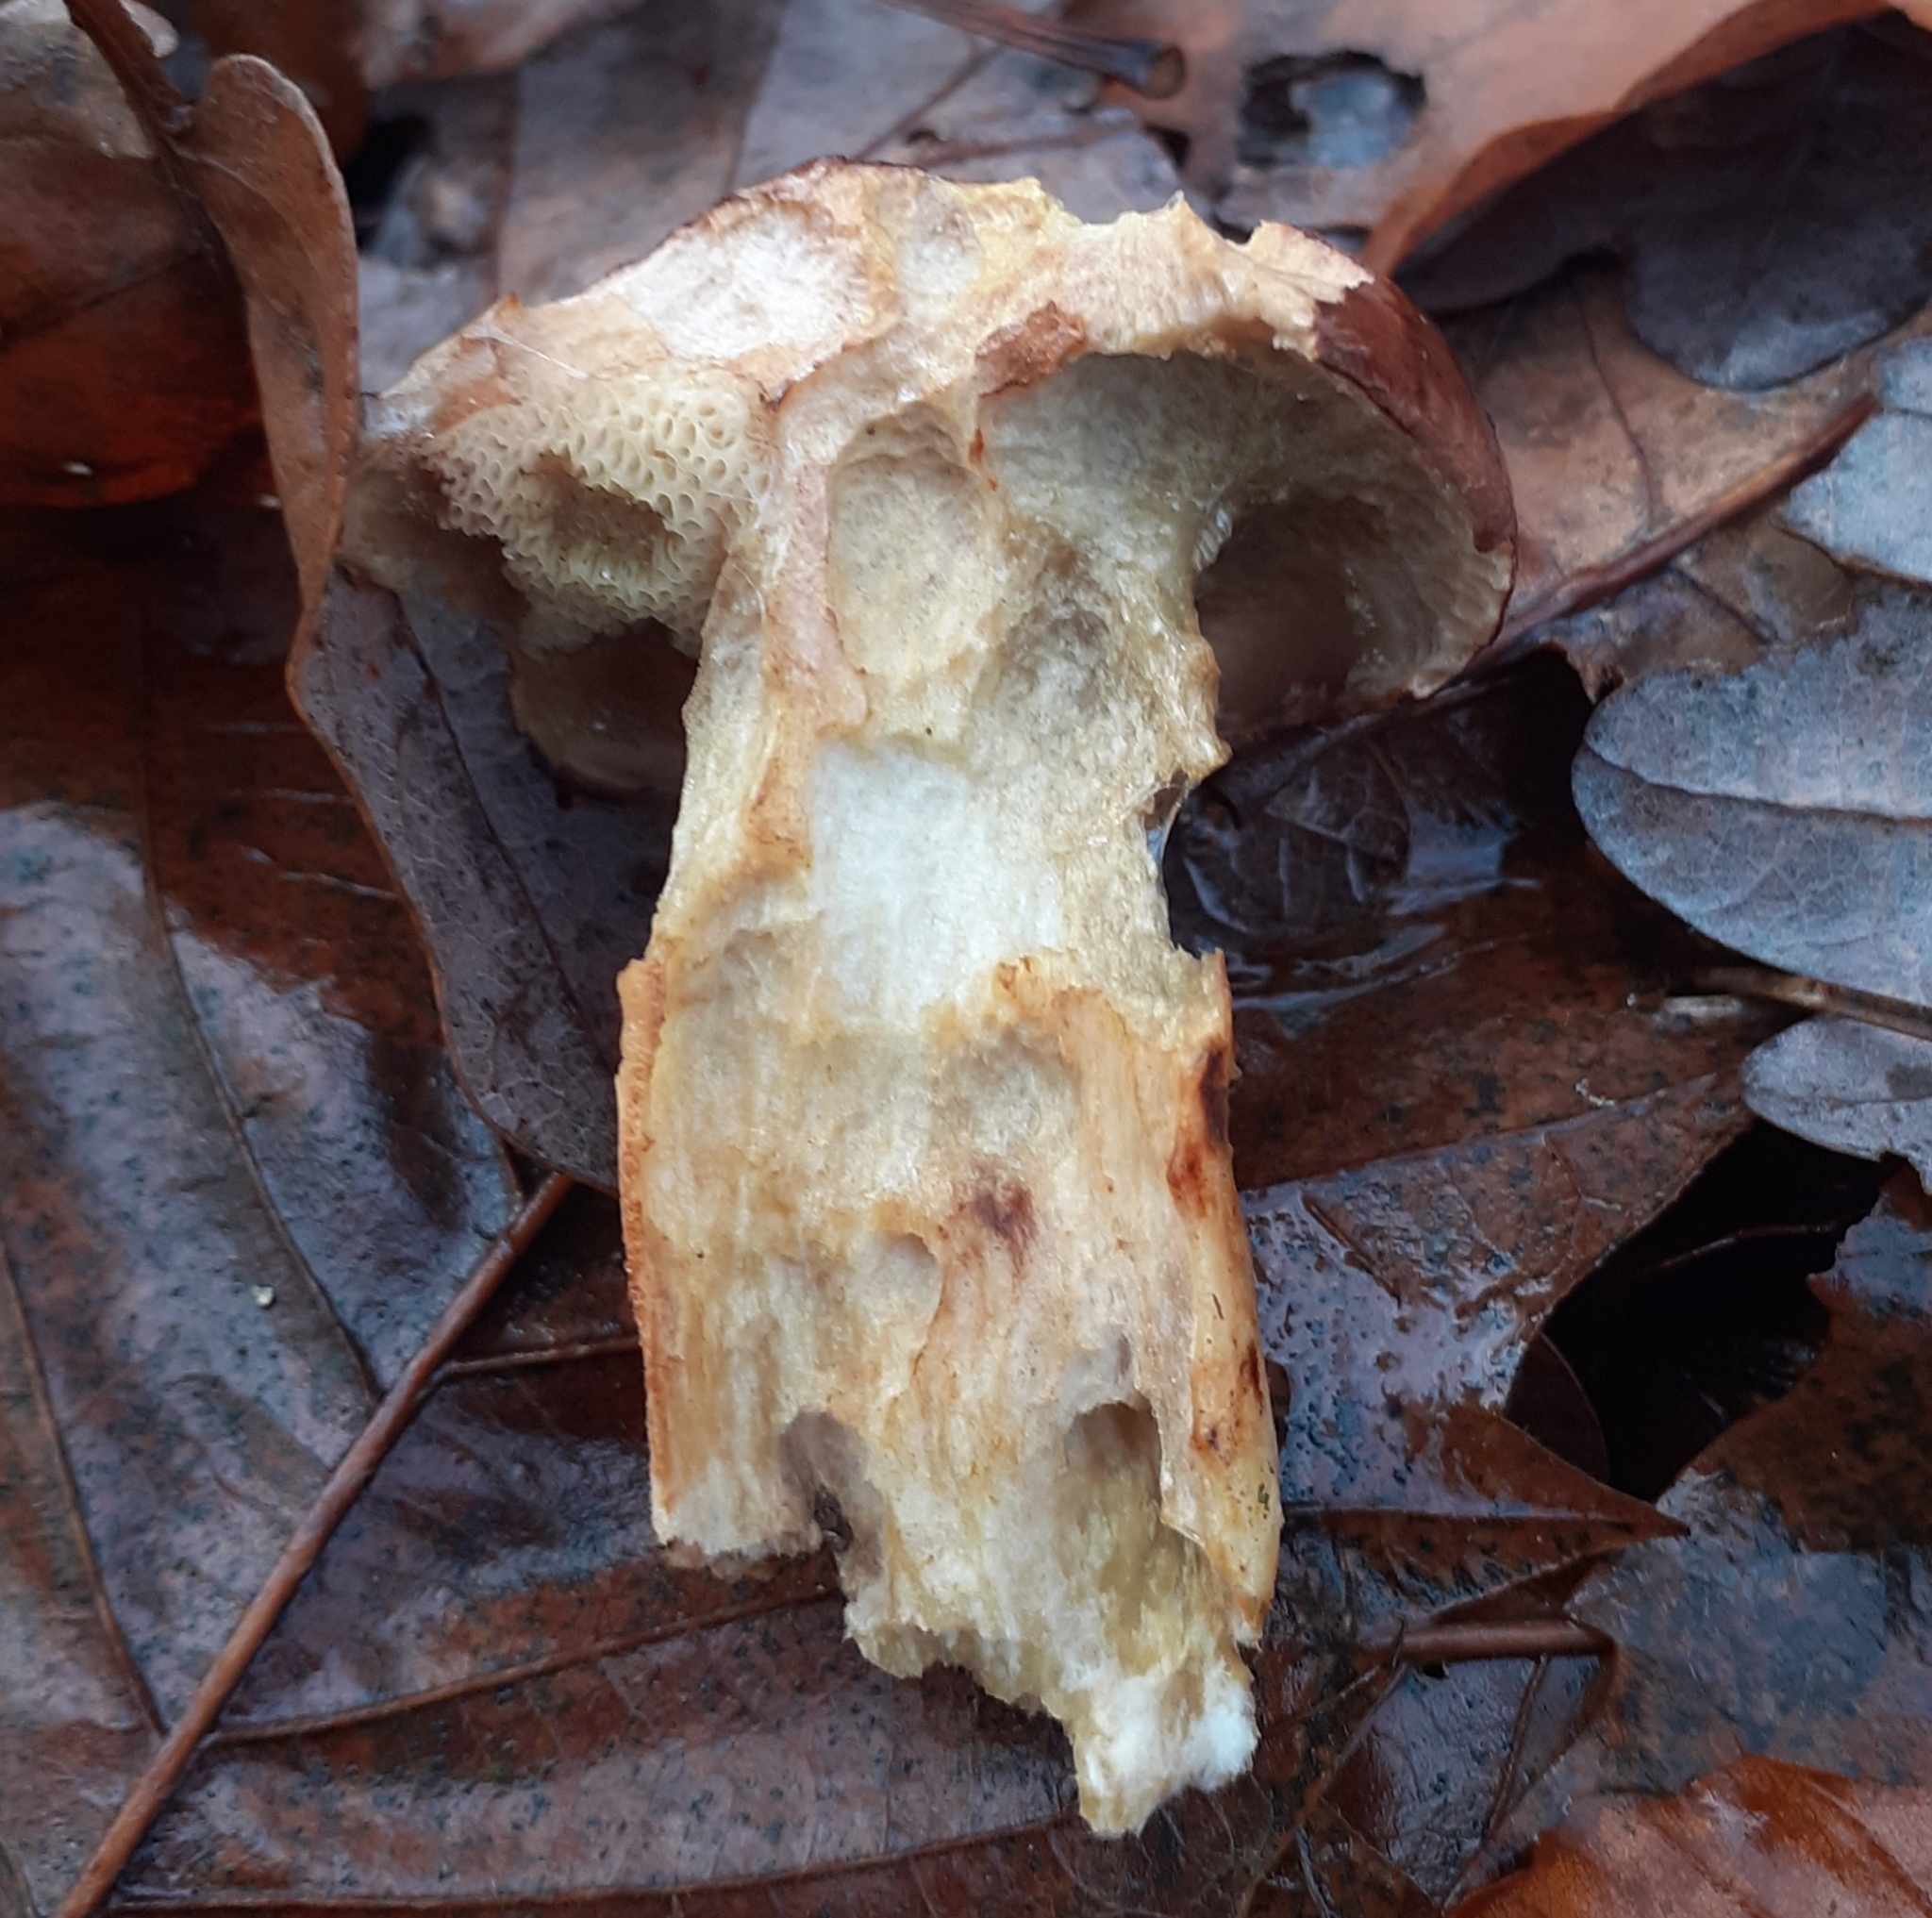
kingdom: Fungi
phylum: Basidiomycota
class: Agaricomycetes
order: Boletales
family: Boletaceae
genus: Imleria
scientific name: Imleria badia
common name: Bay bolete
